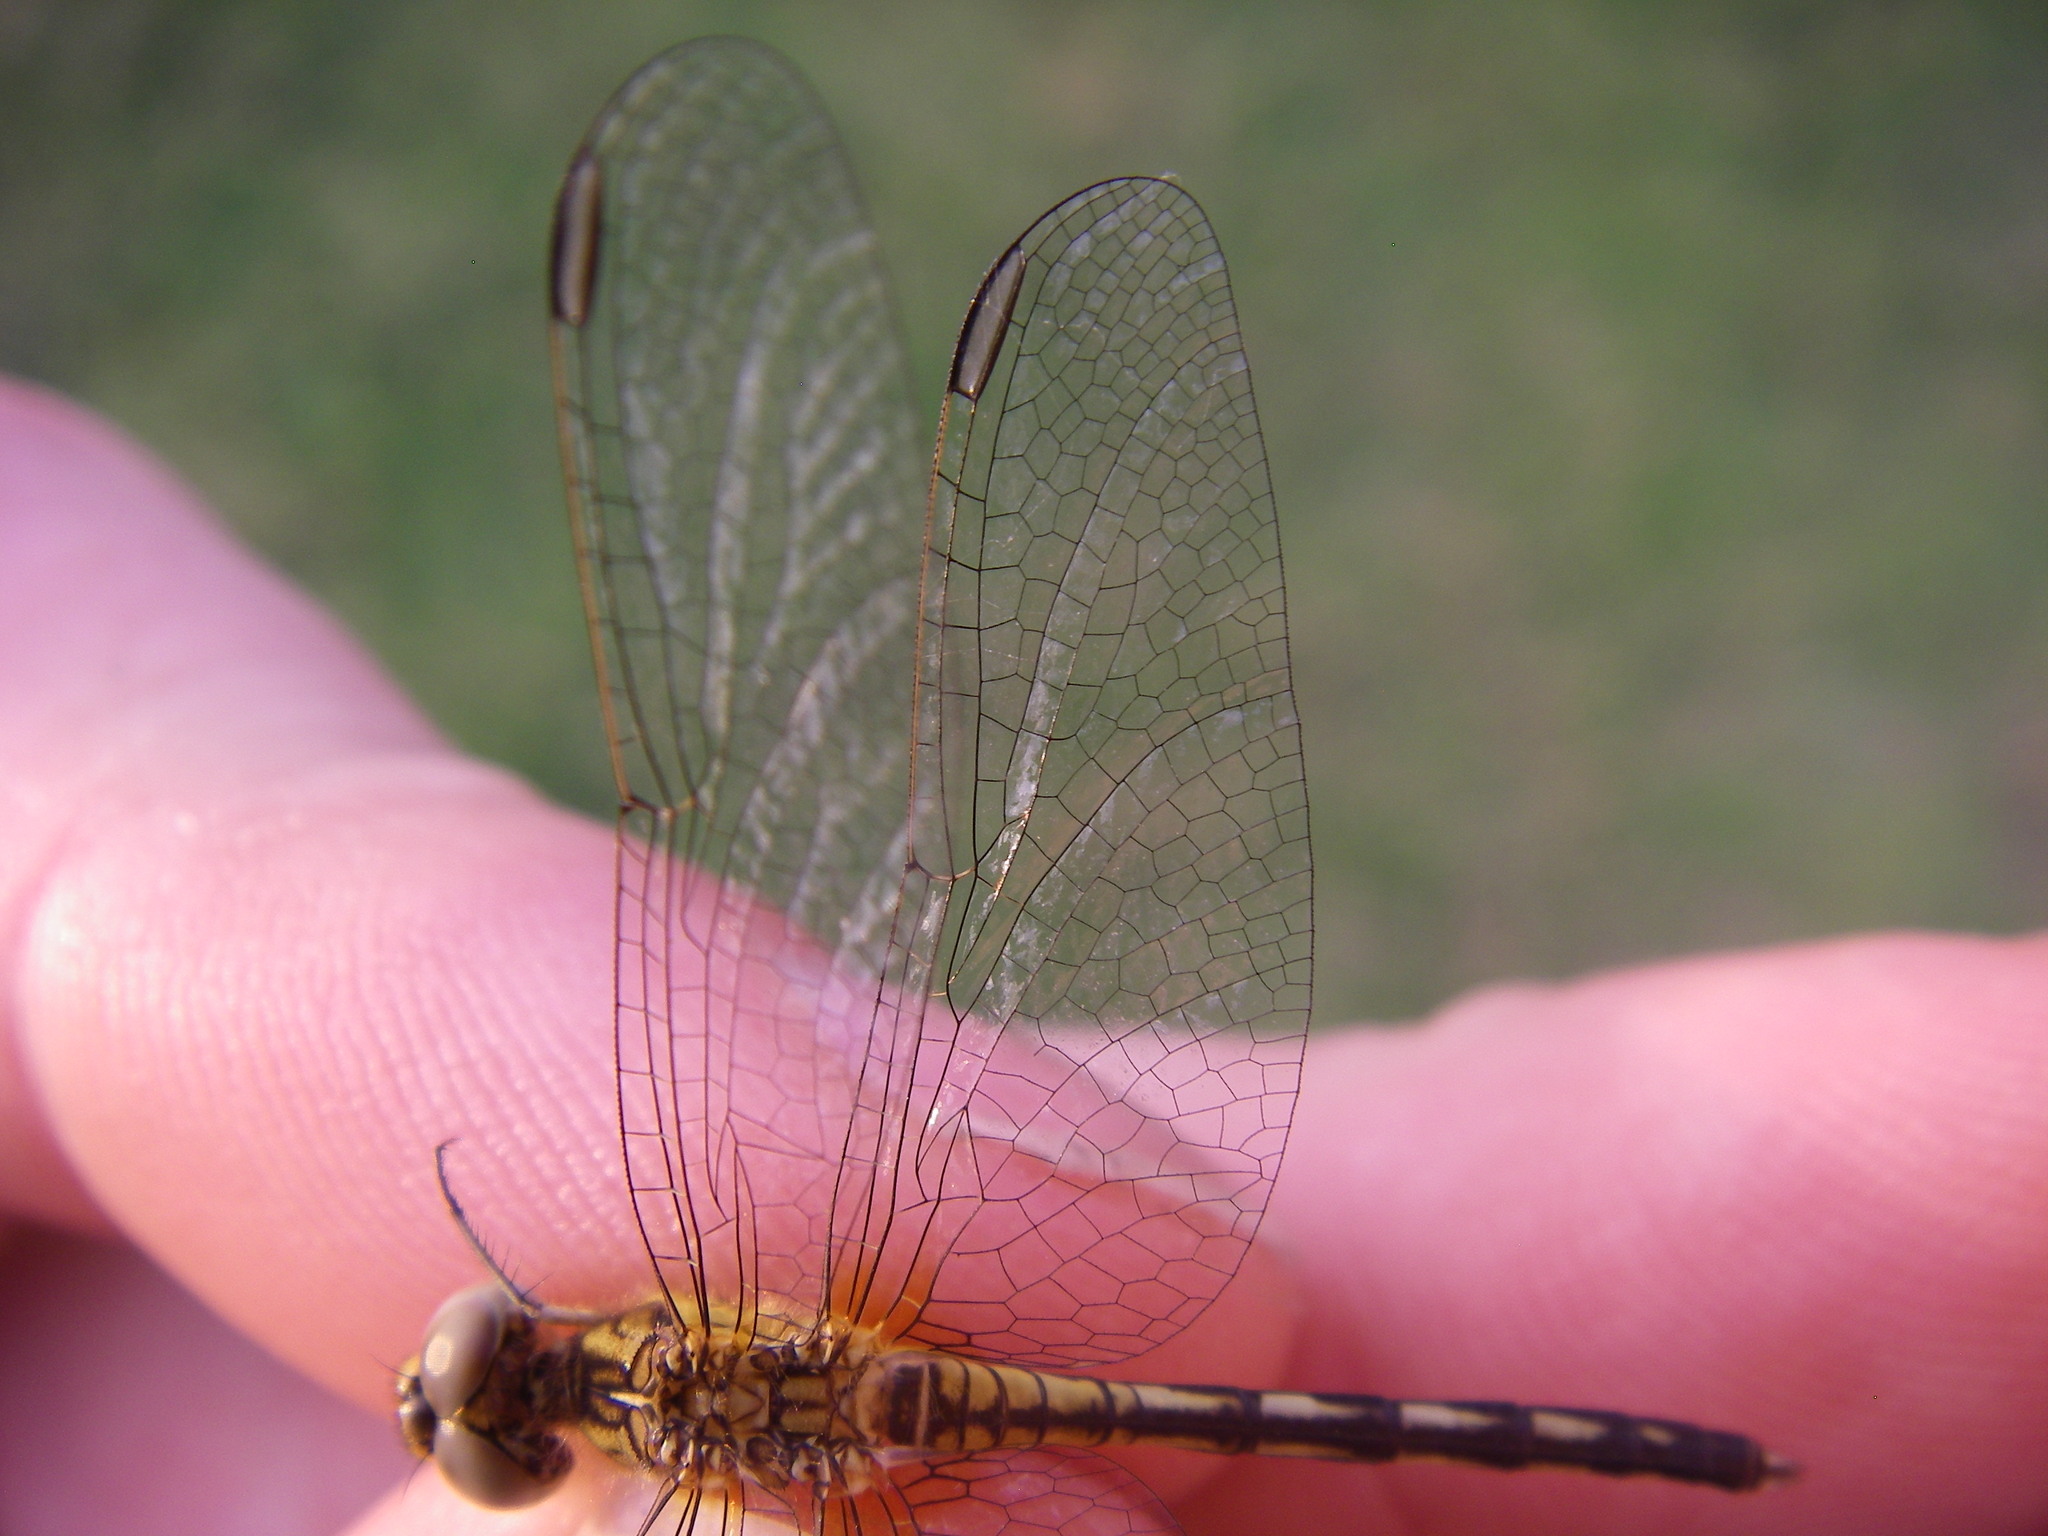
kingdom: Animalia
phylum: Arthropoda
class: Insecta
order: Odonata
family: Libellulidae
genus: Diplacodes
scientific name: Diplacodes lefebvrii
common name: Black percher
